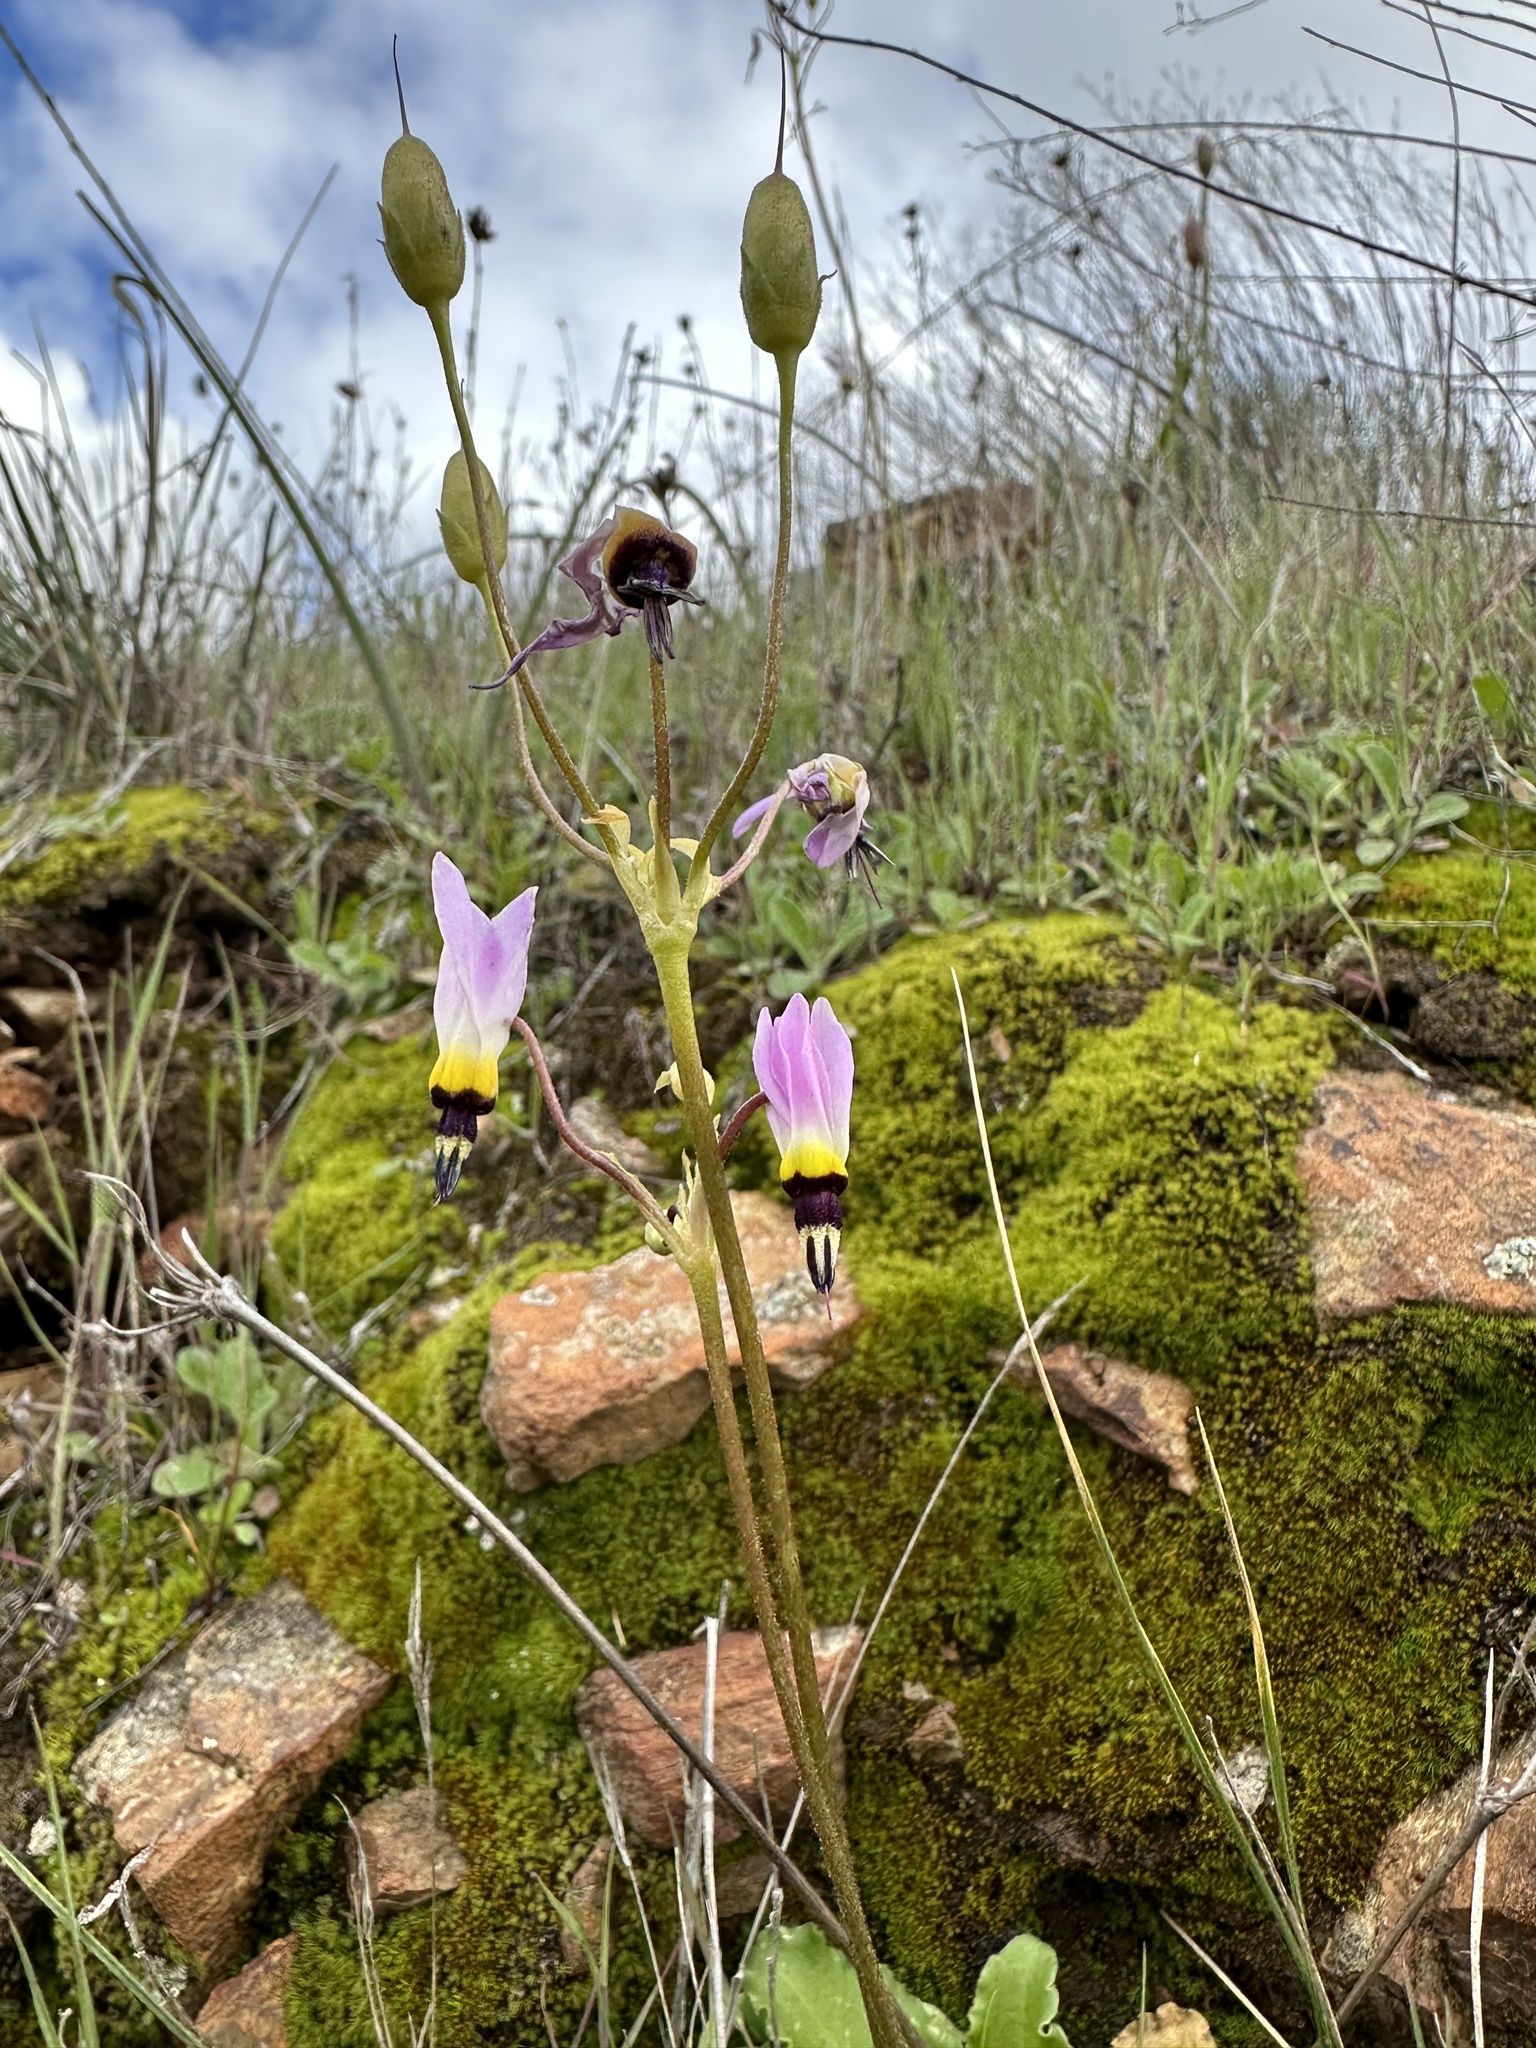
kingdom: Plantae
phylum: Tracheophyta
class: Magnoliopsida
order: Ericales
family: Primulaceae
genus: Dodecatheon
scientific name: Dodecatheon clevelandii
